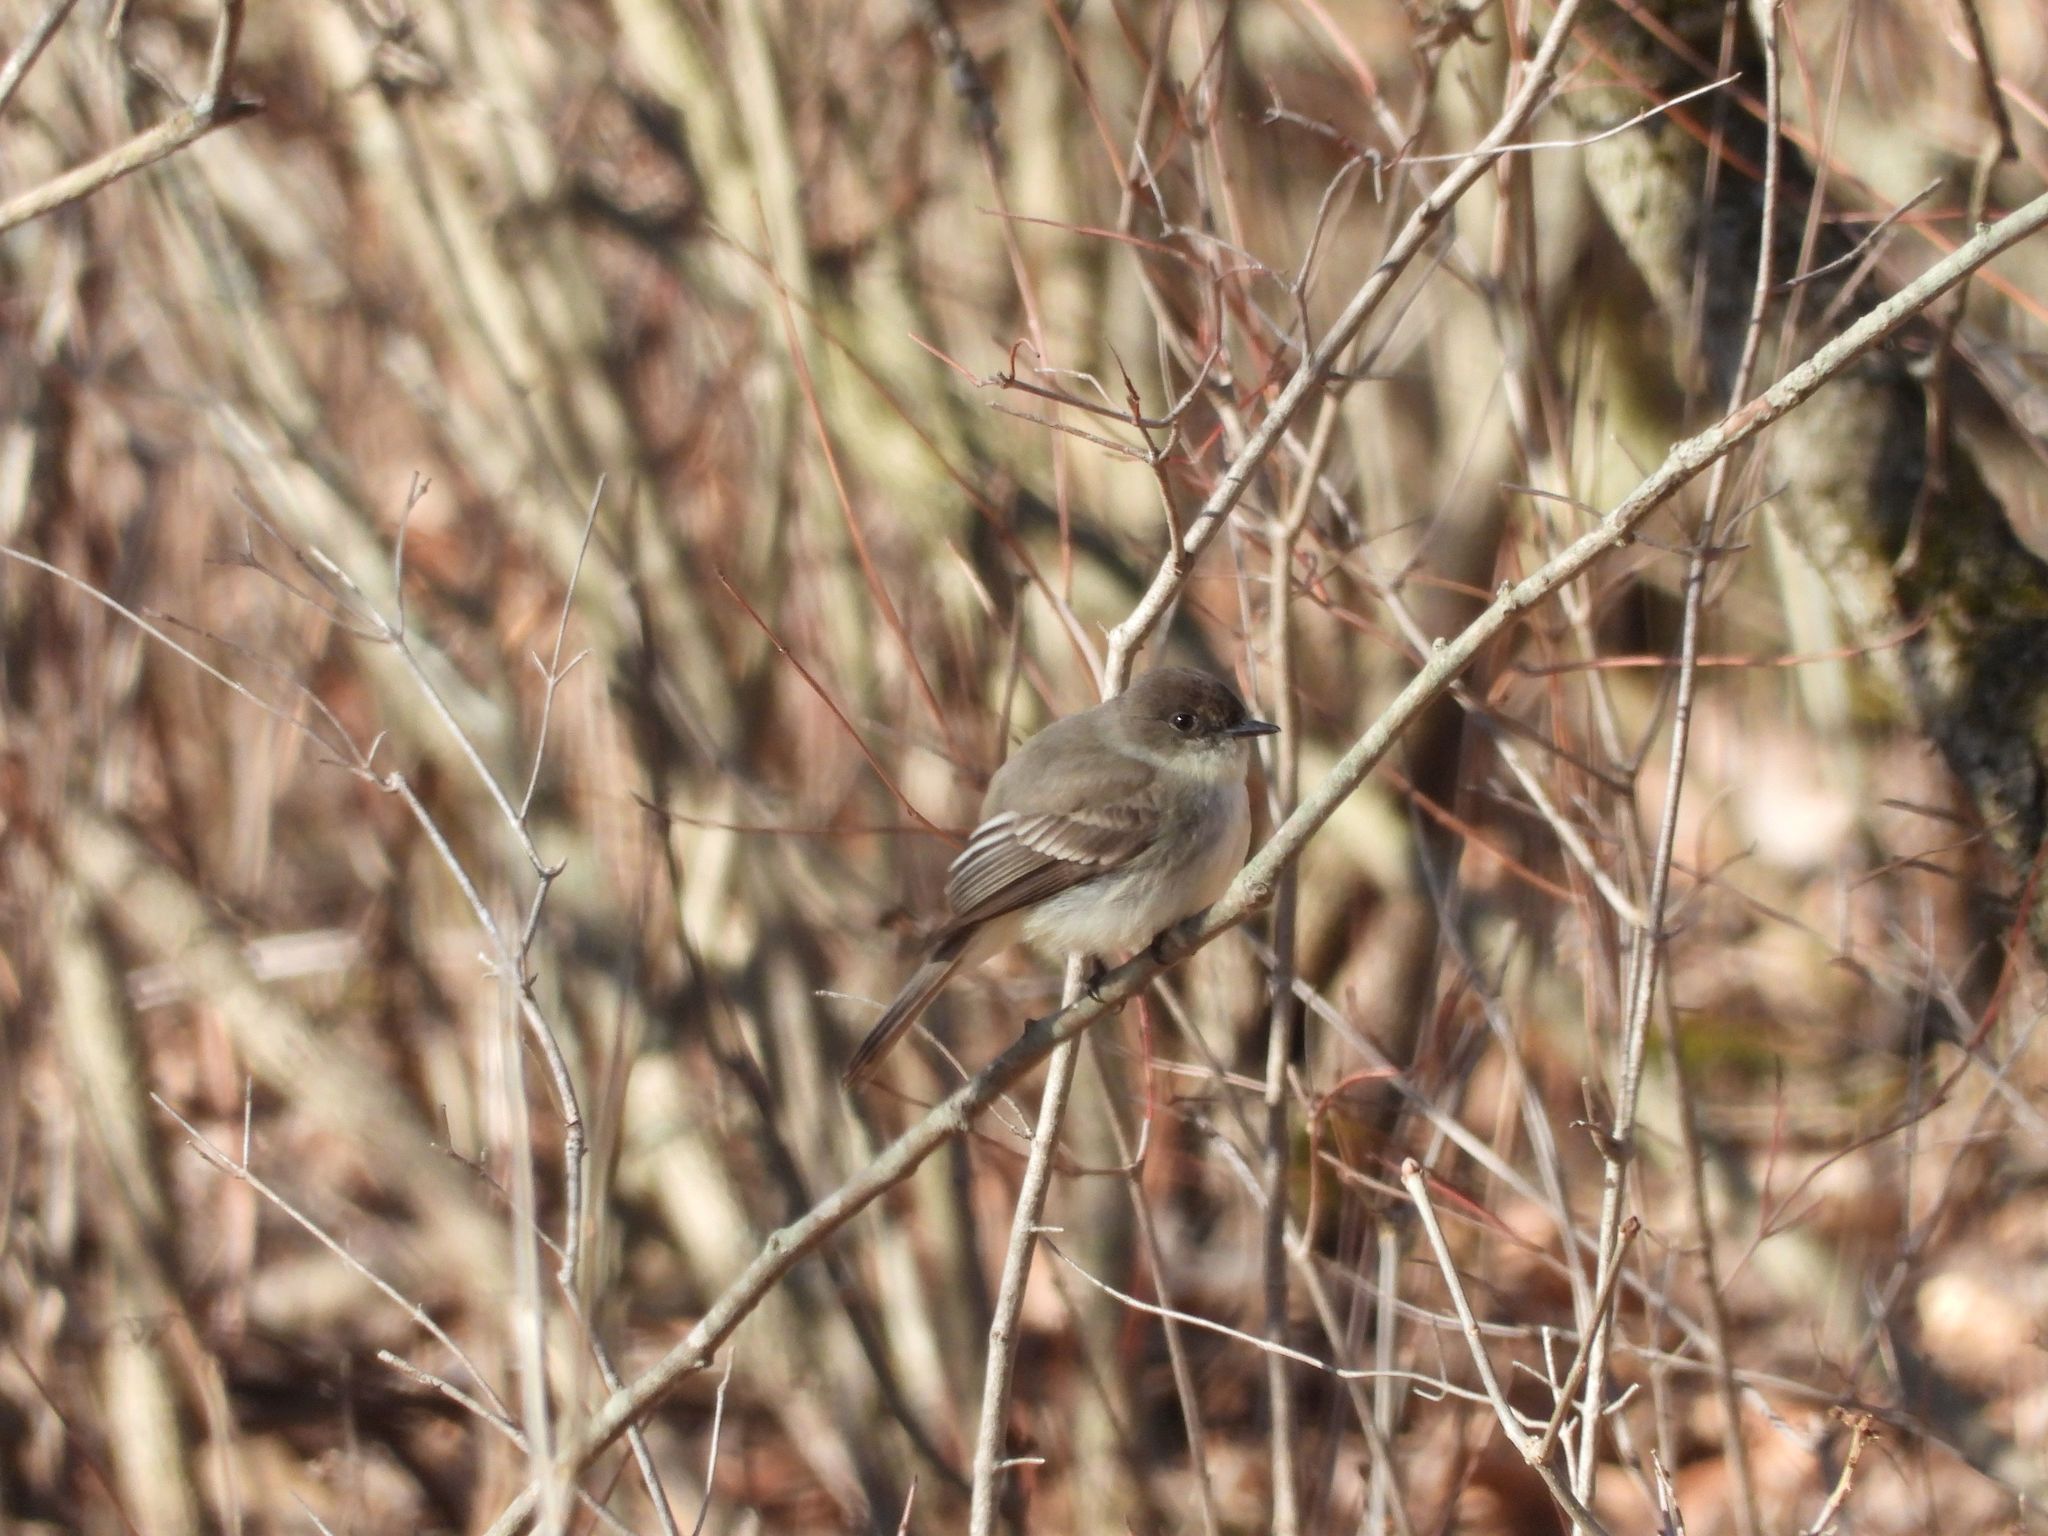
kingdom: Animalia
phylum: Chordata
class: Aves
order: Passeriformes
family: Tyrannidae
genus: Sayornis
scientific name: Sayornis phoebe
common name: Eastern phoebe
